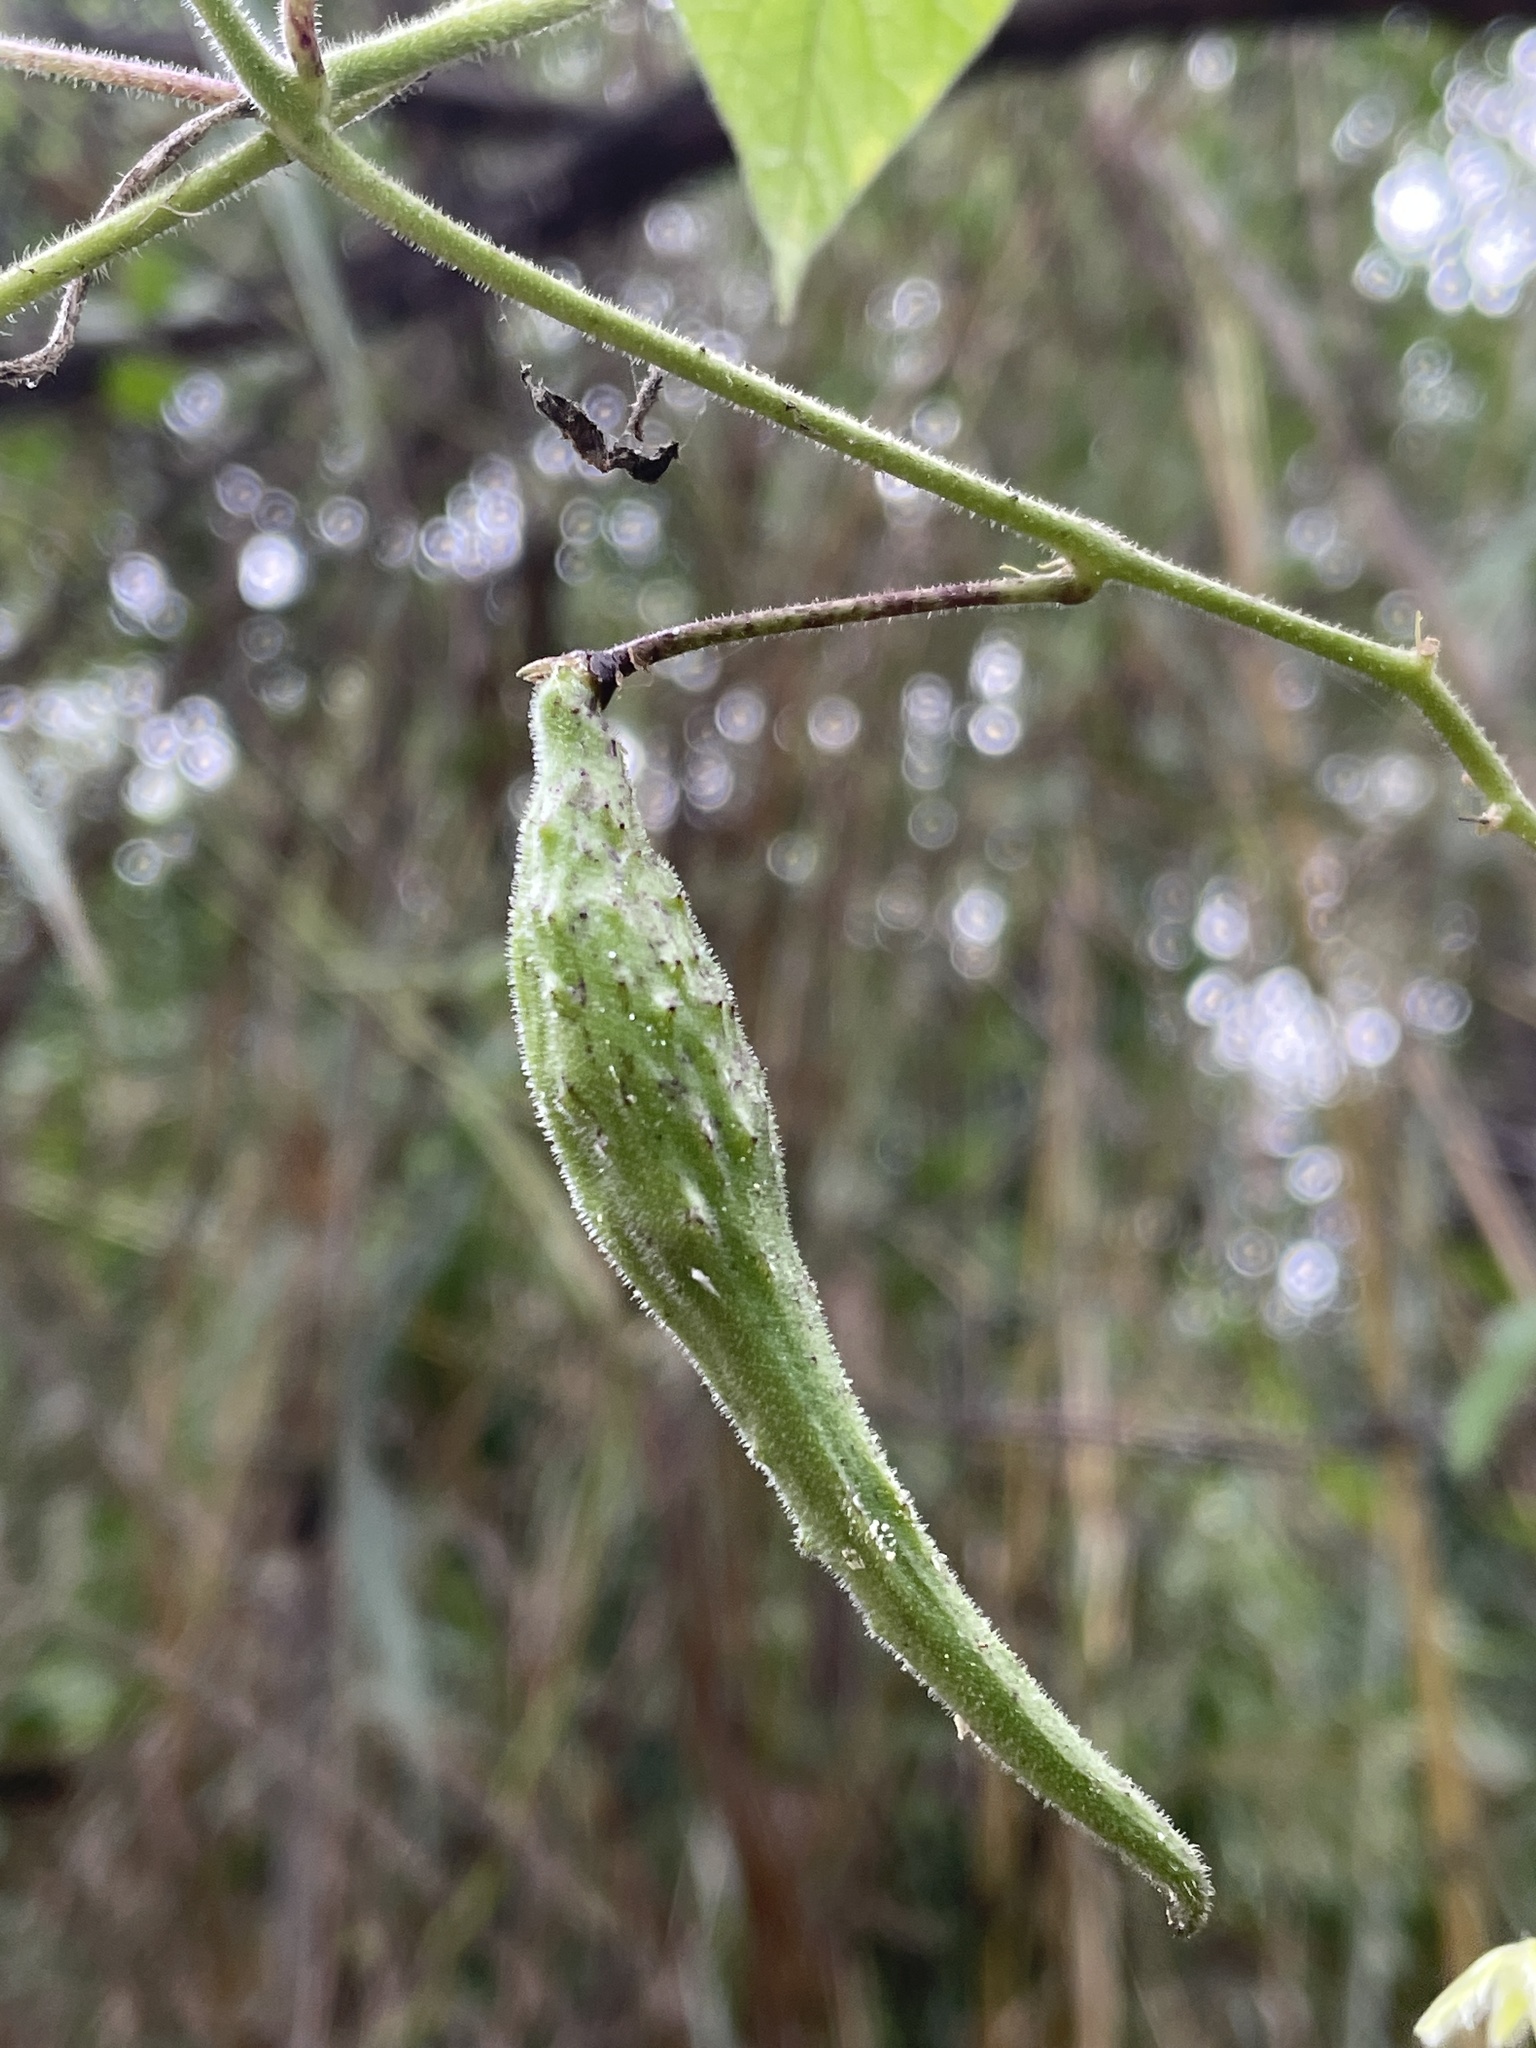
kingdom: Plantae
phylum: Tracheophyta
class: Magnoliopsida
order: Gentianales
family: Apocynaceae
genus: Pergularia
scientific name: Pergularia daemia
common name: Trellis-vine
